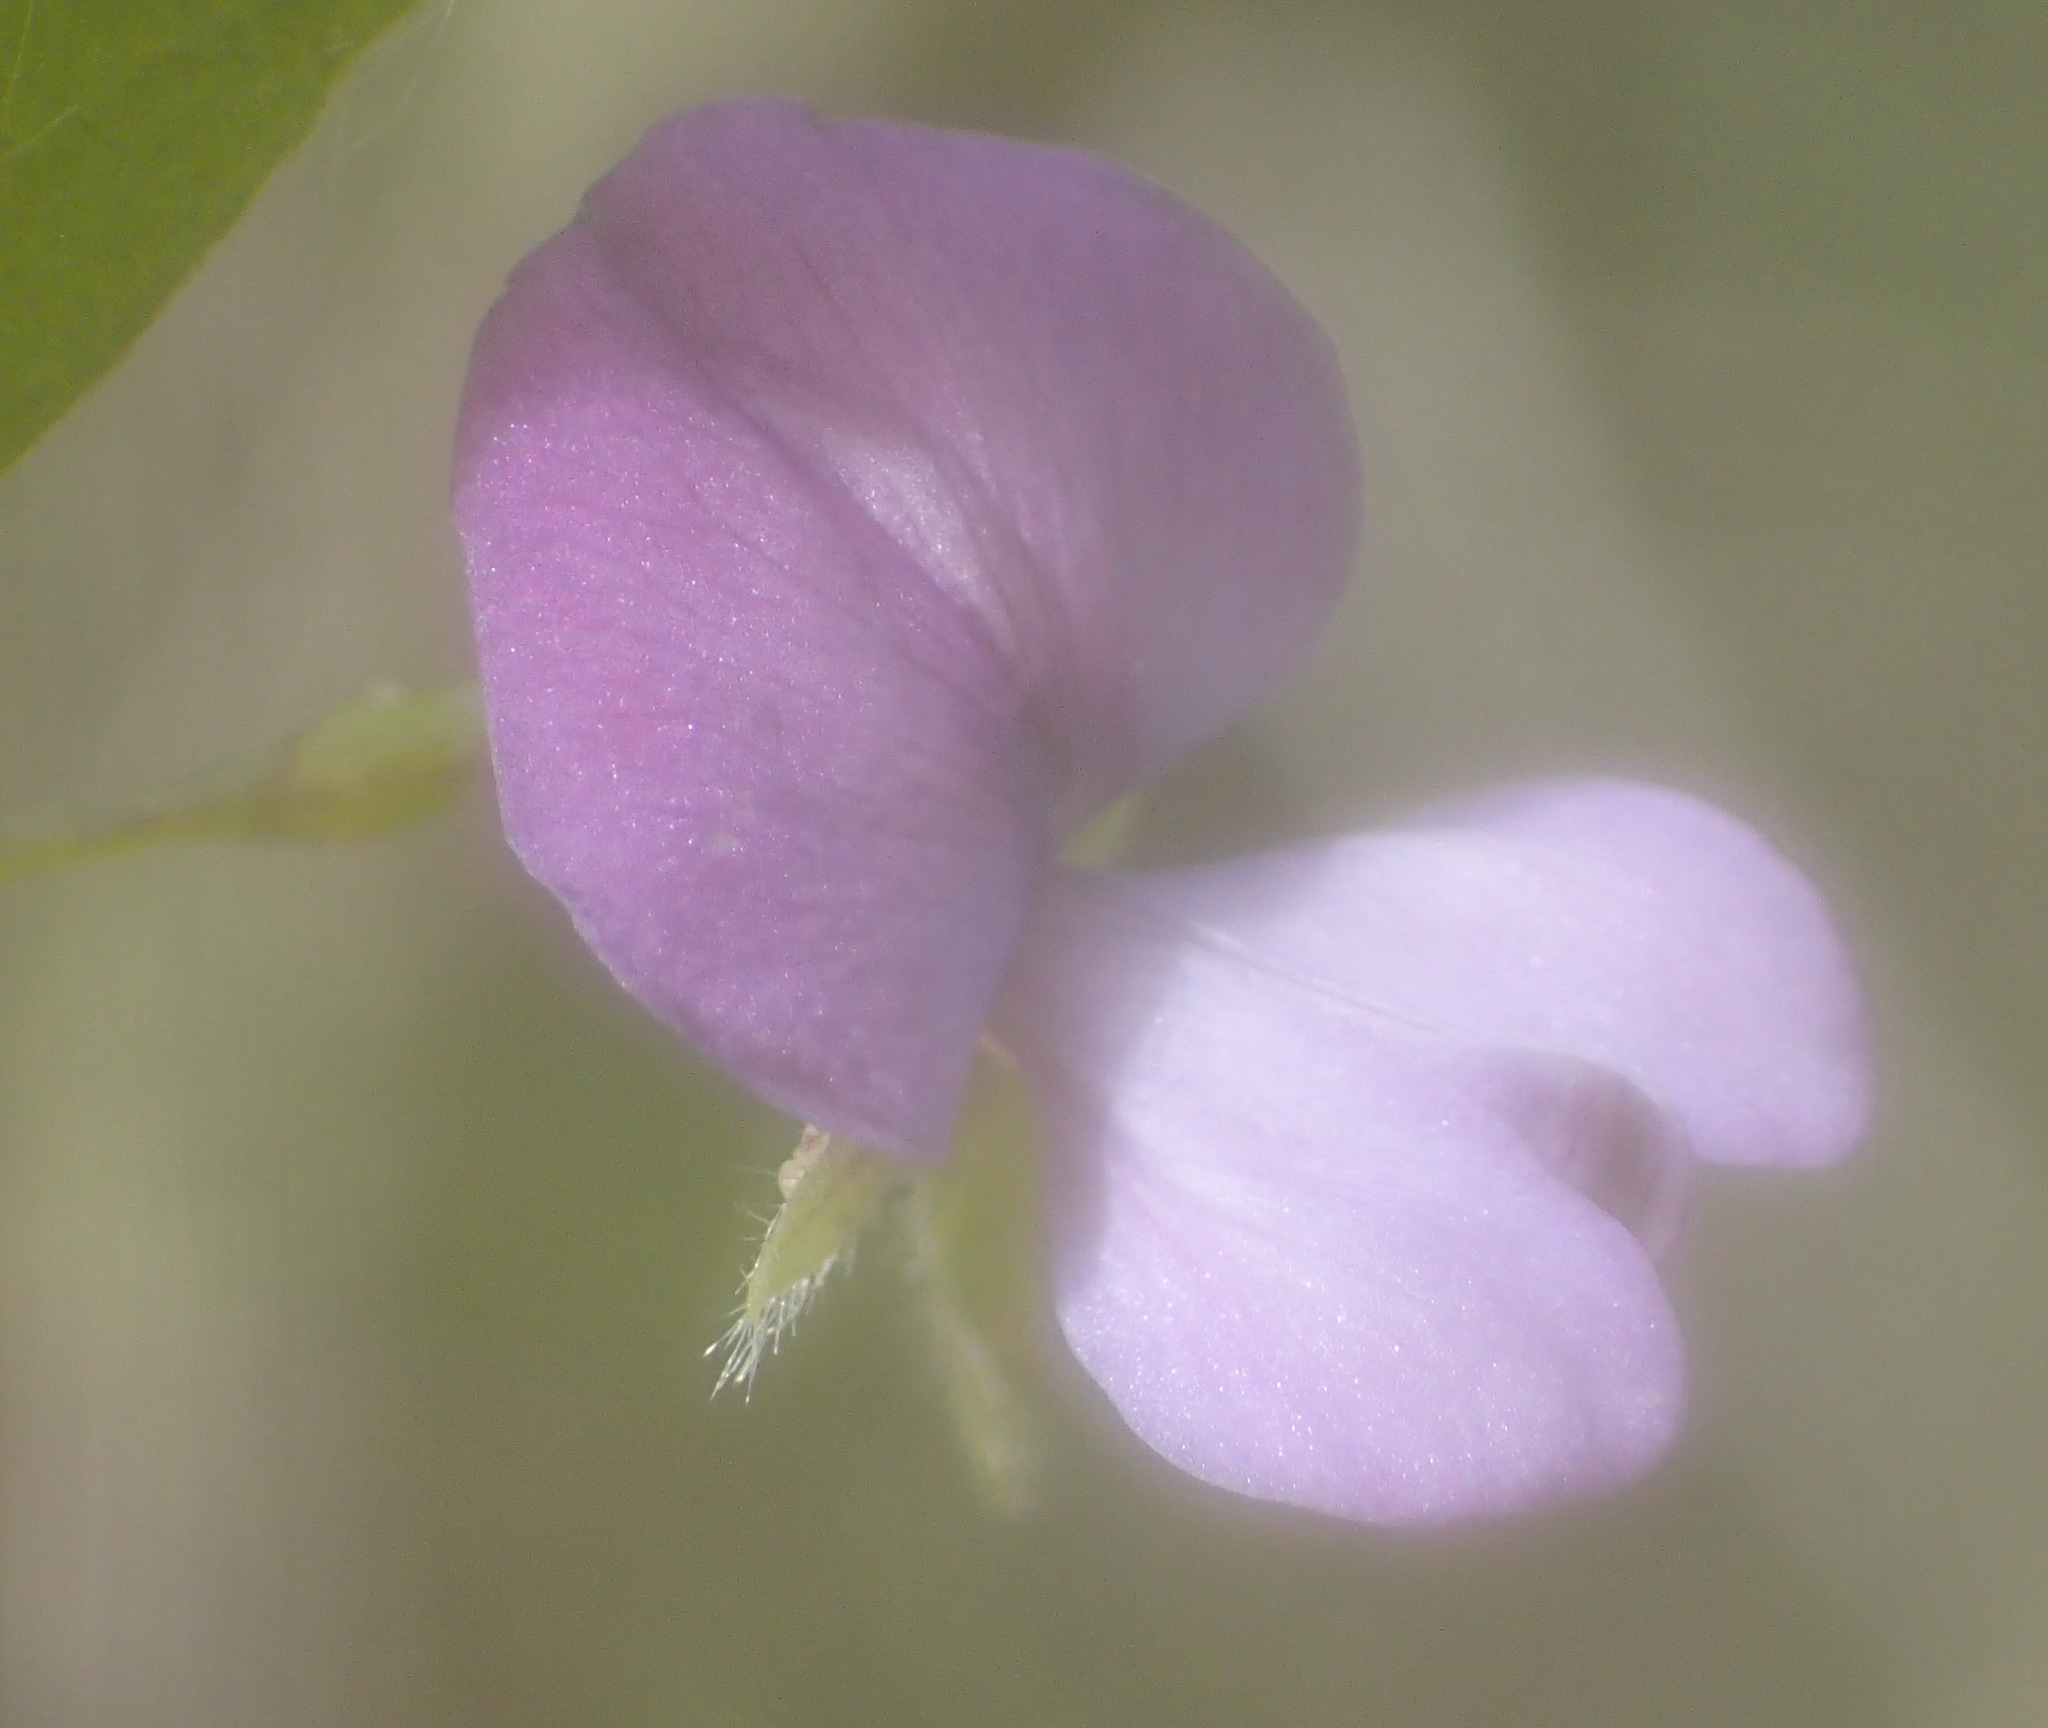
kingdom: Plantae
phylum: Tracheophyta
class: Magnoliopsida
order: Fabales
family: Fabaceae
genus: Psoralea
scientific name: Psoralea plauta
